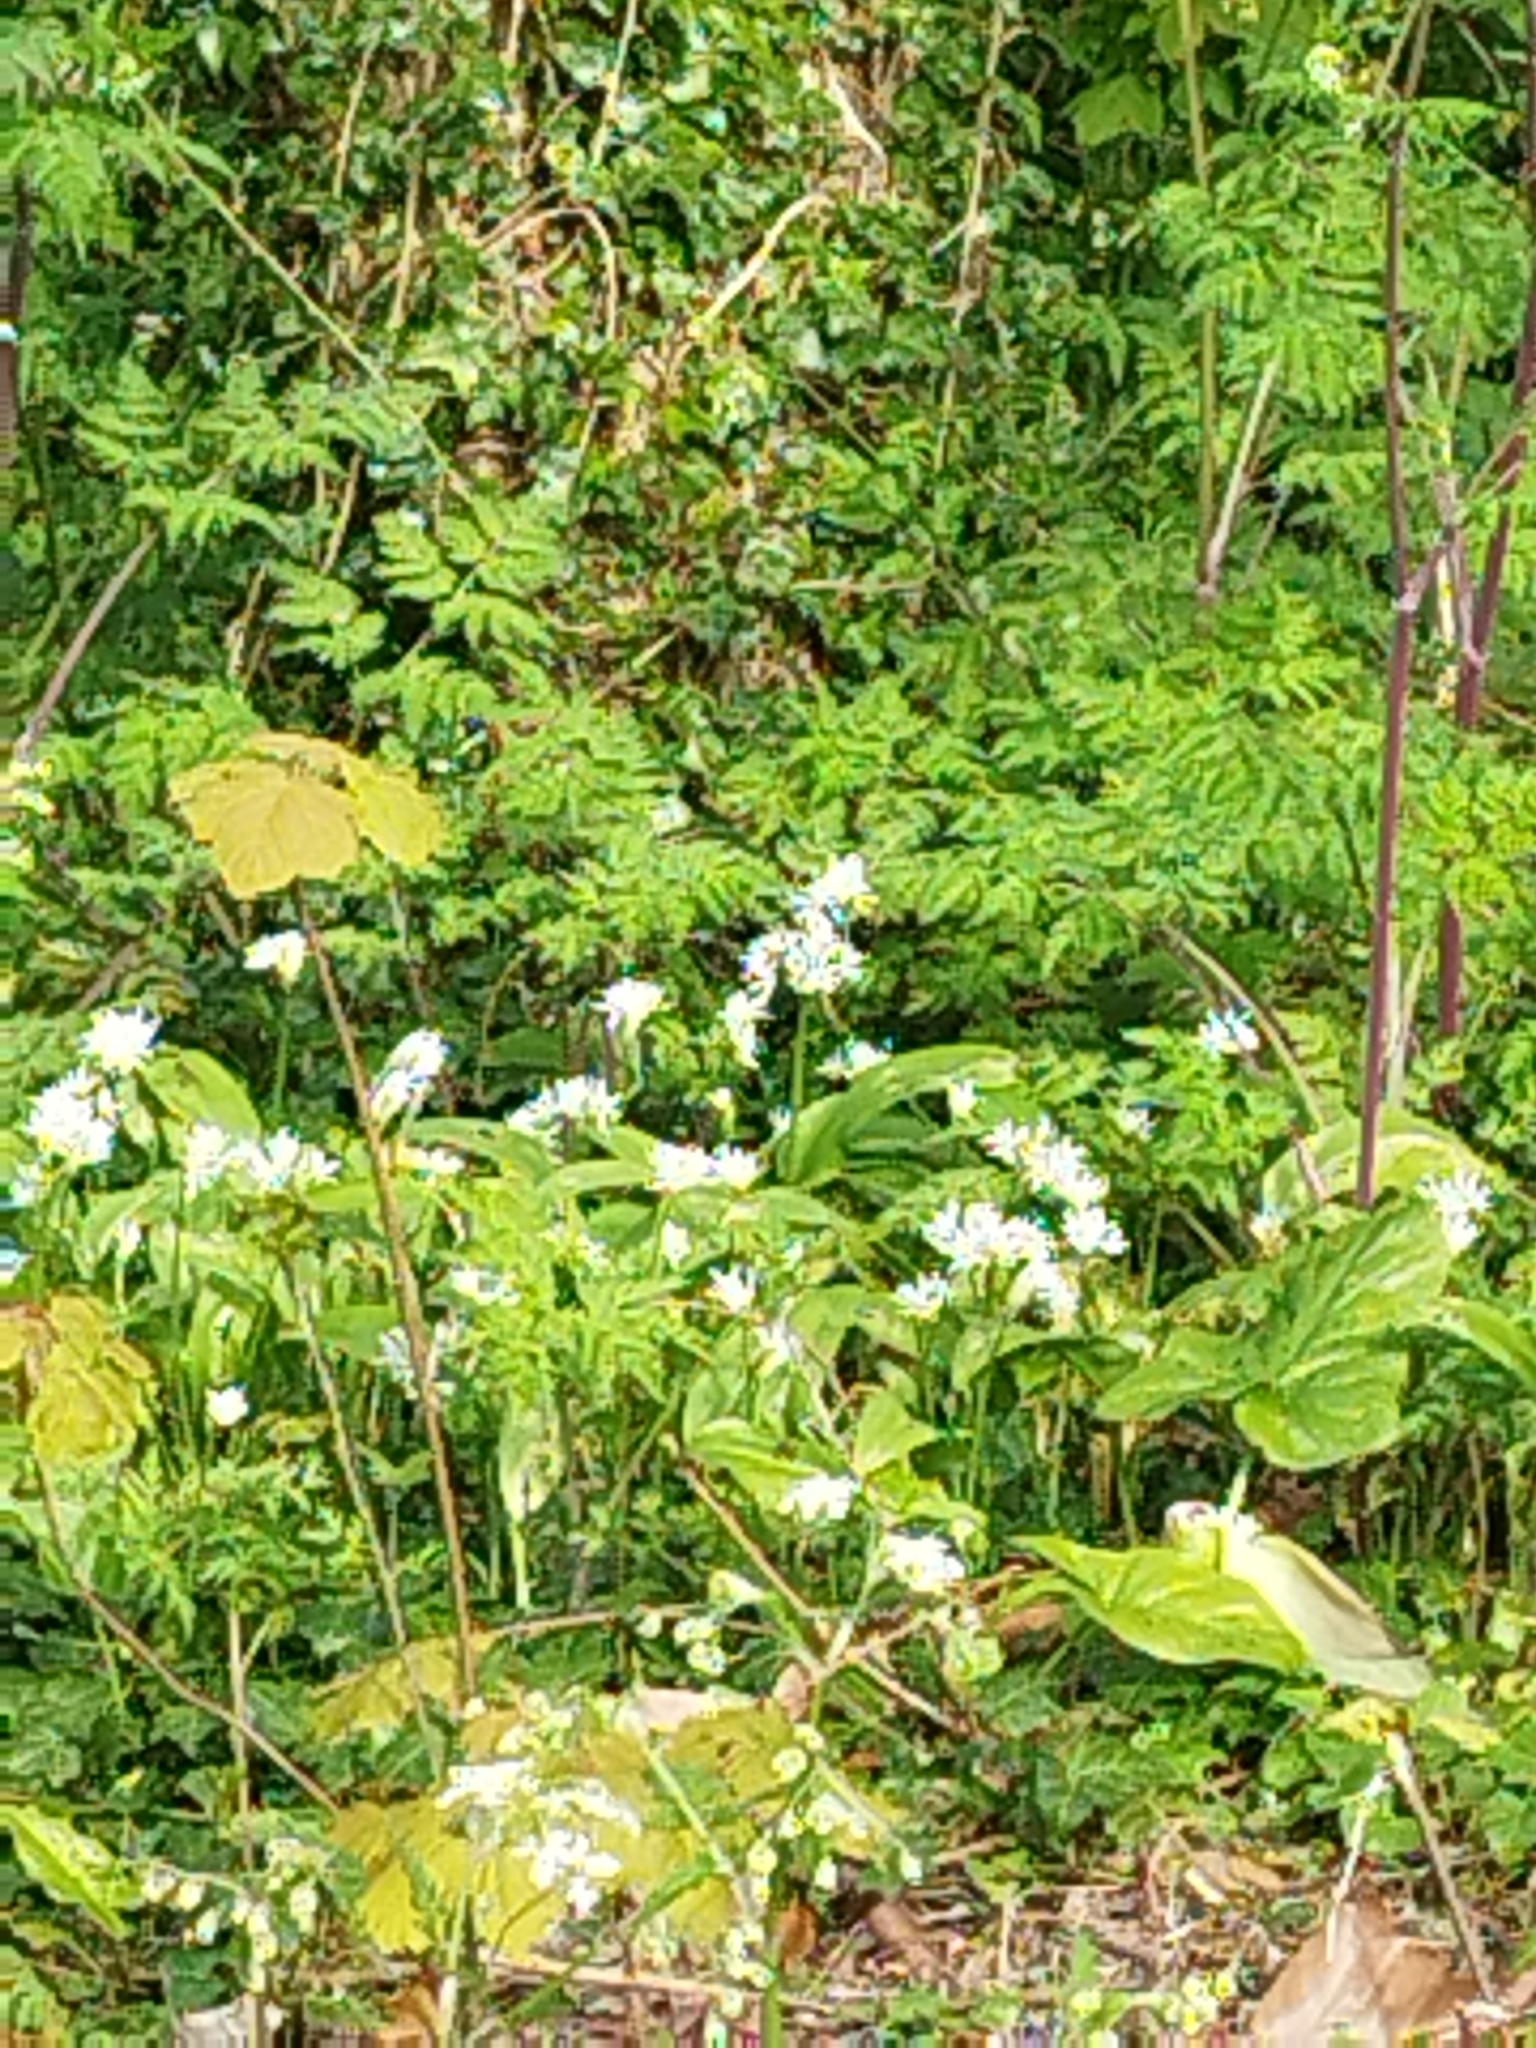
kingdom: Plantae
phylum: Tracheophyta
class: Liliopsida
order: Asparagales
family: Amaryllidaceae
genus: Allium
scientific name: Allium ursinum
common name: Ramsons
